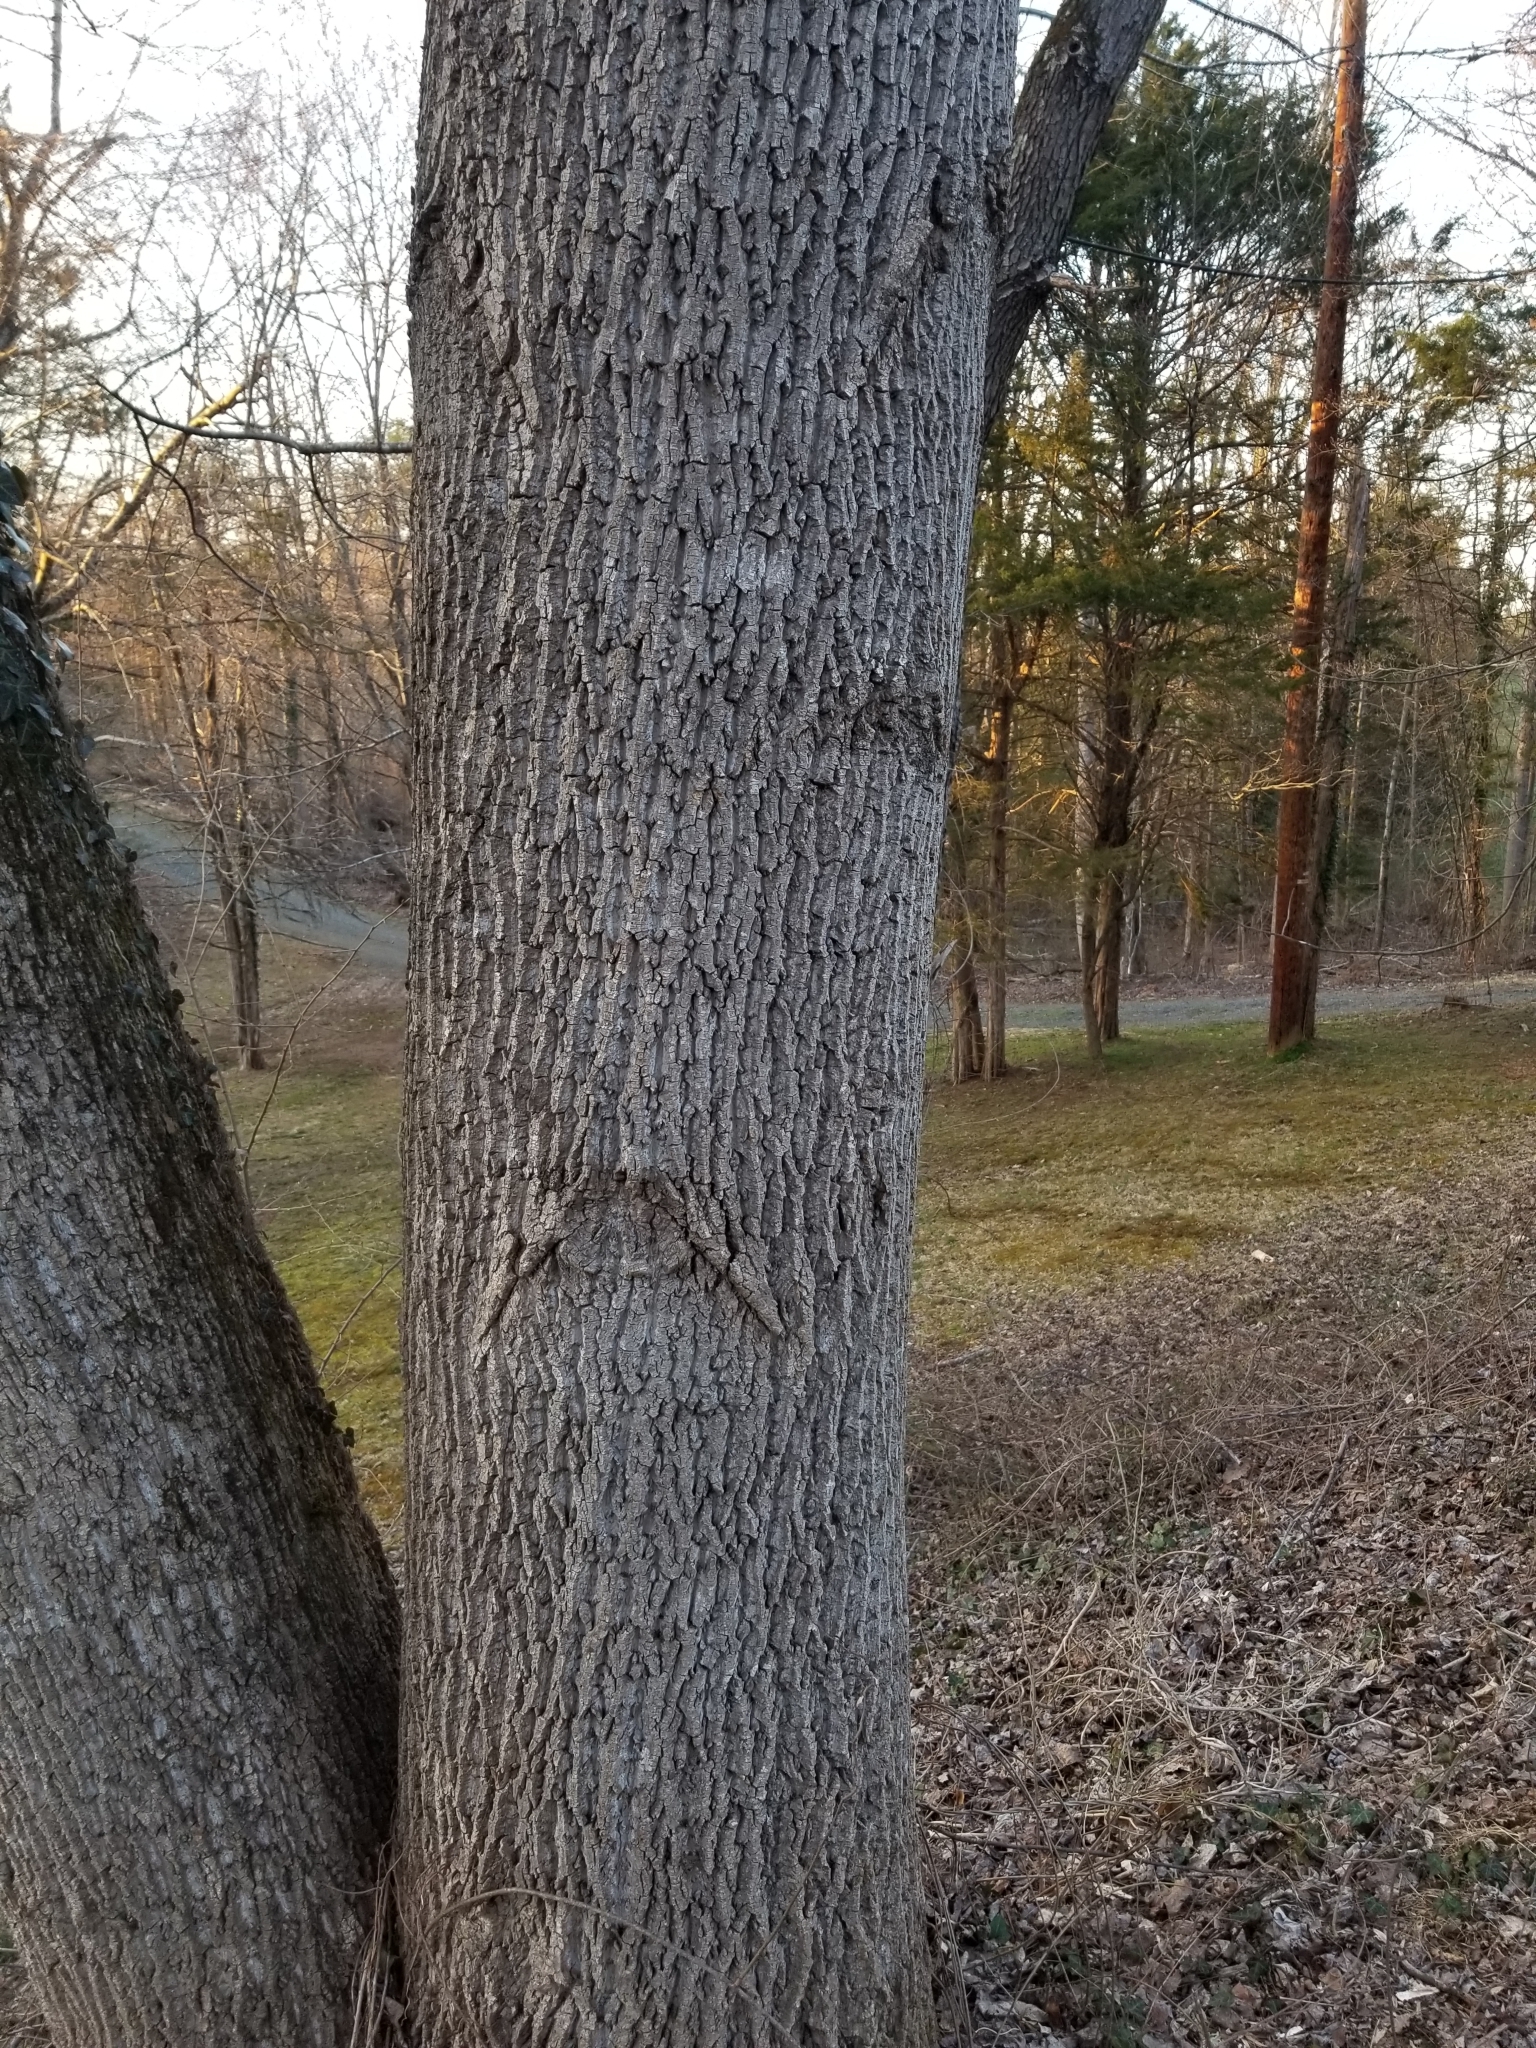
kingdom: Plantae
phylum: Tracheophyta
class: Magnoliopsida
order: Magnoliales
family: Magnoliaceae
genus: Liriodendron
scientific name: Liriodendron tulipifera
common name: Tulip tree
